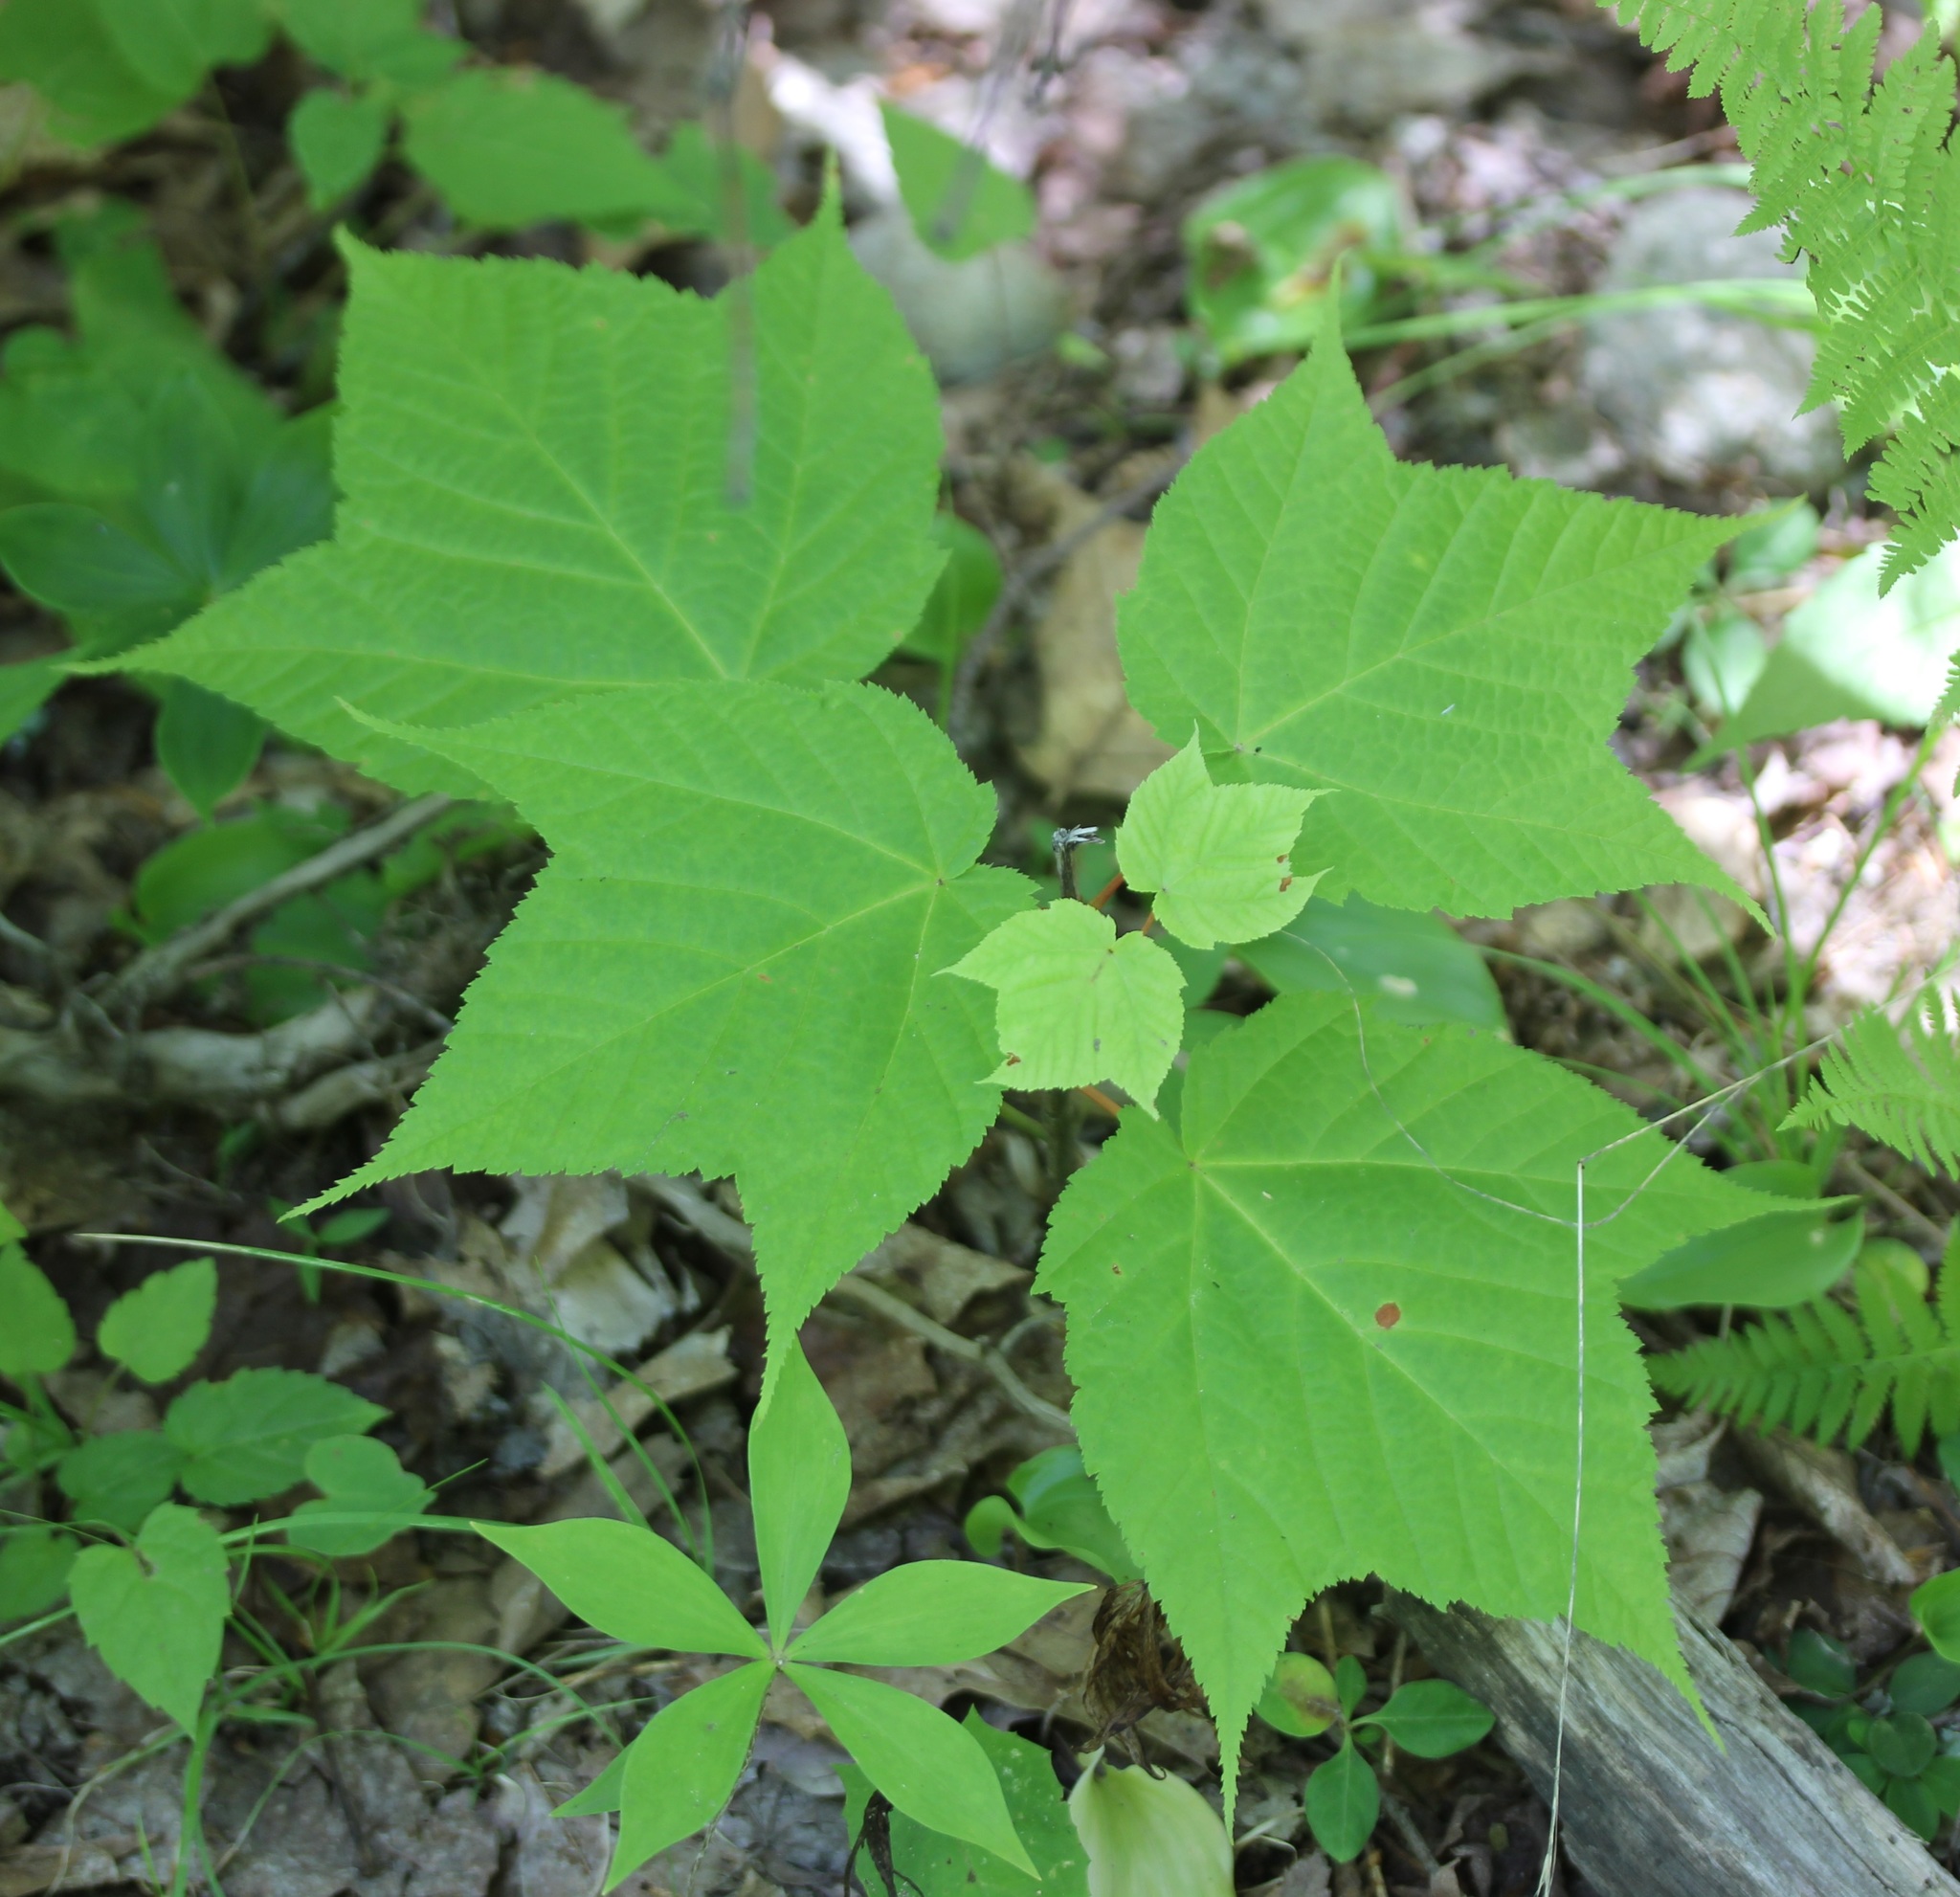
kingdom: Plantae
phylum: Tracheophyta
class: Magnoliopsida
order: Sapindales
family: Sapindaceae
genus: Acer
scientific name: Acer pensylvanicum
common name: Moosewood
